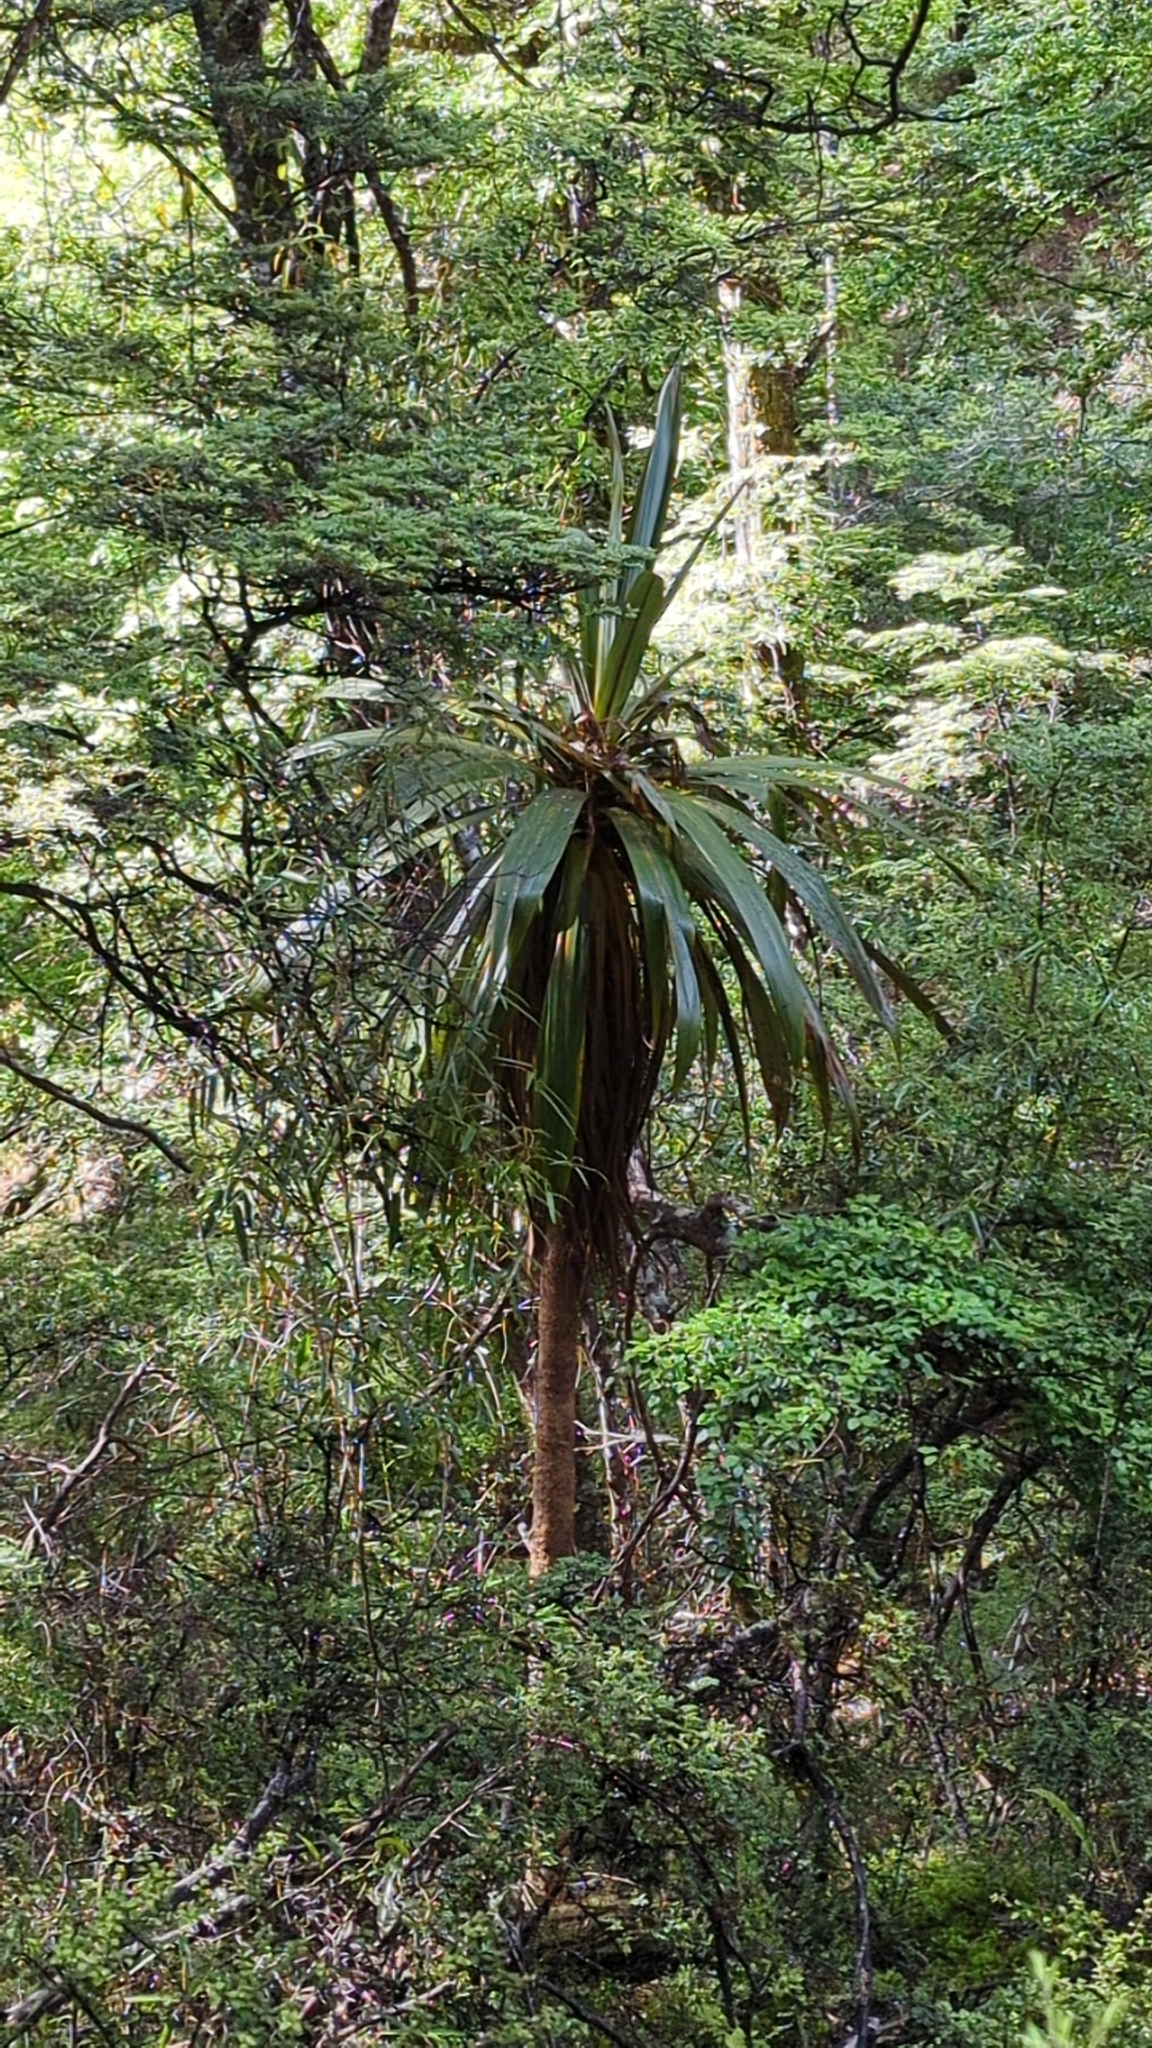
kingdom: Plantae
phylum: Tracheophyta
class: Liliopsida
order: Asparagales
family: Asparagaceae
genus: Cordyline
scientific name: Cordyline indivisa
